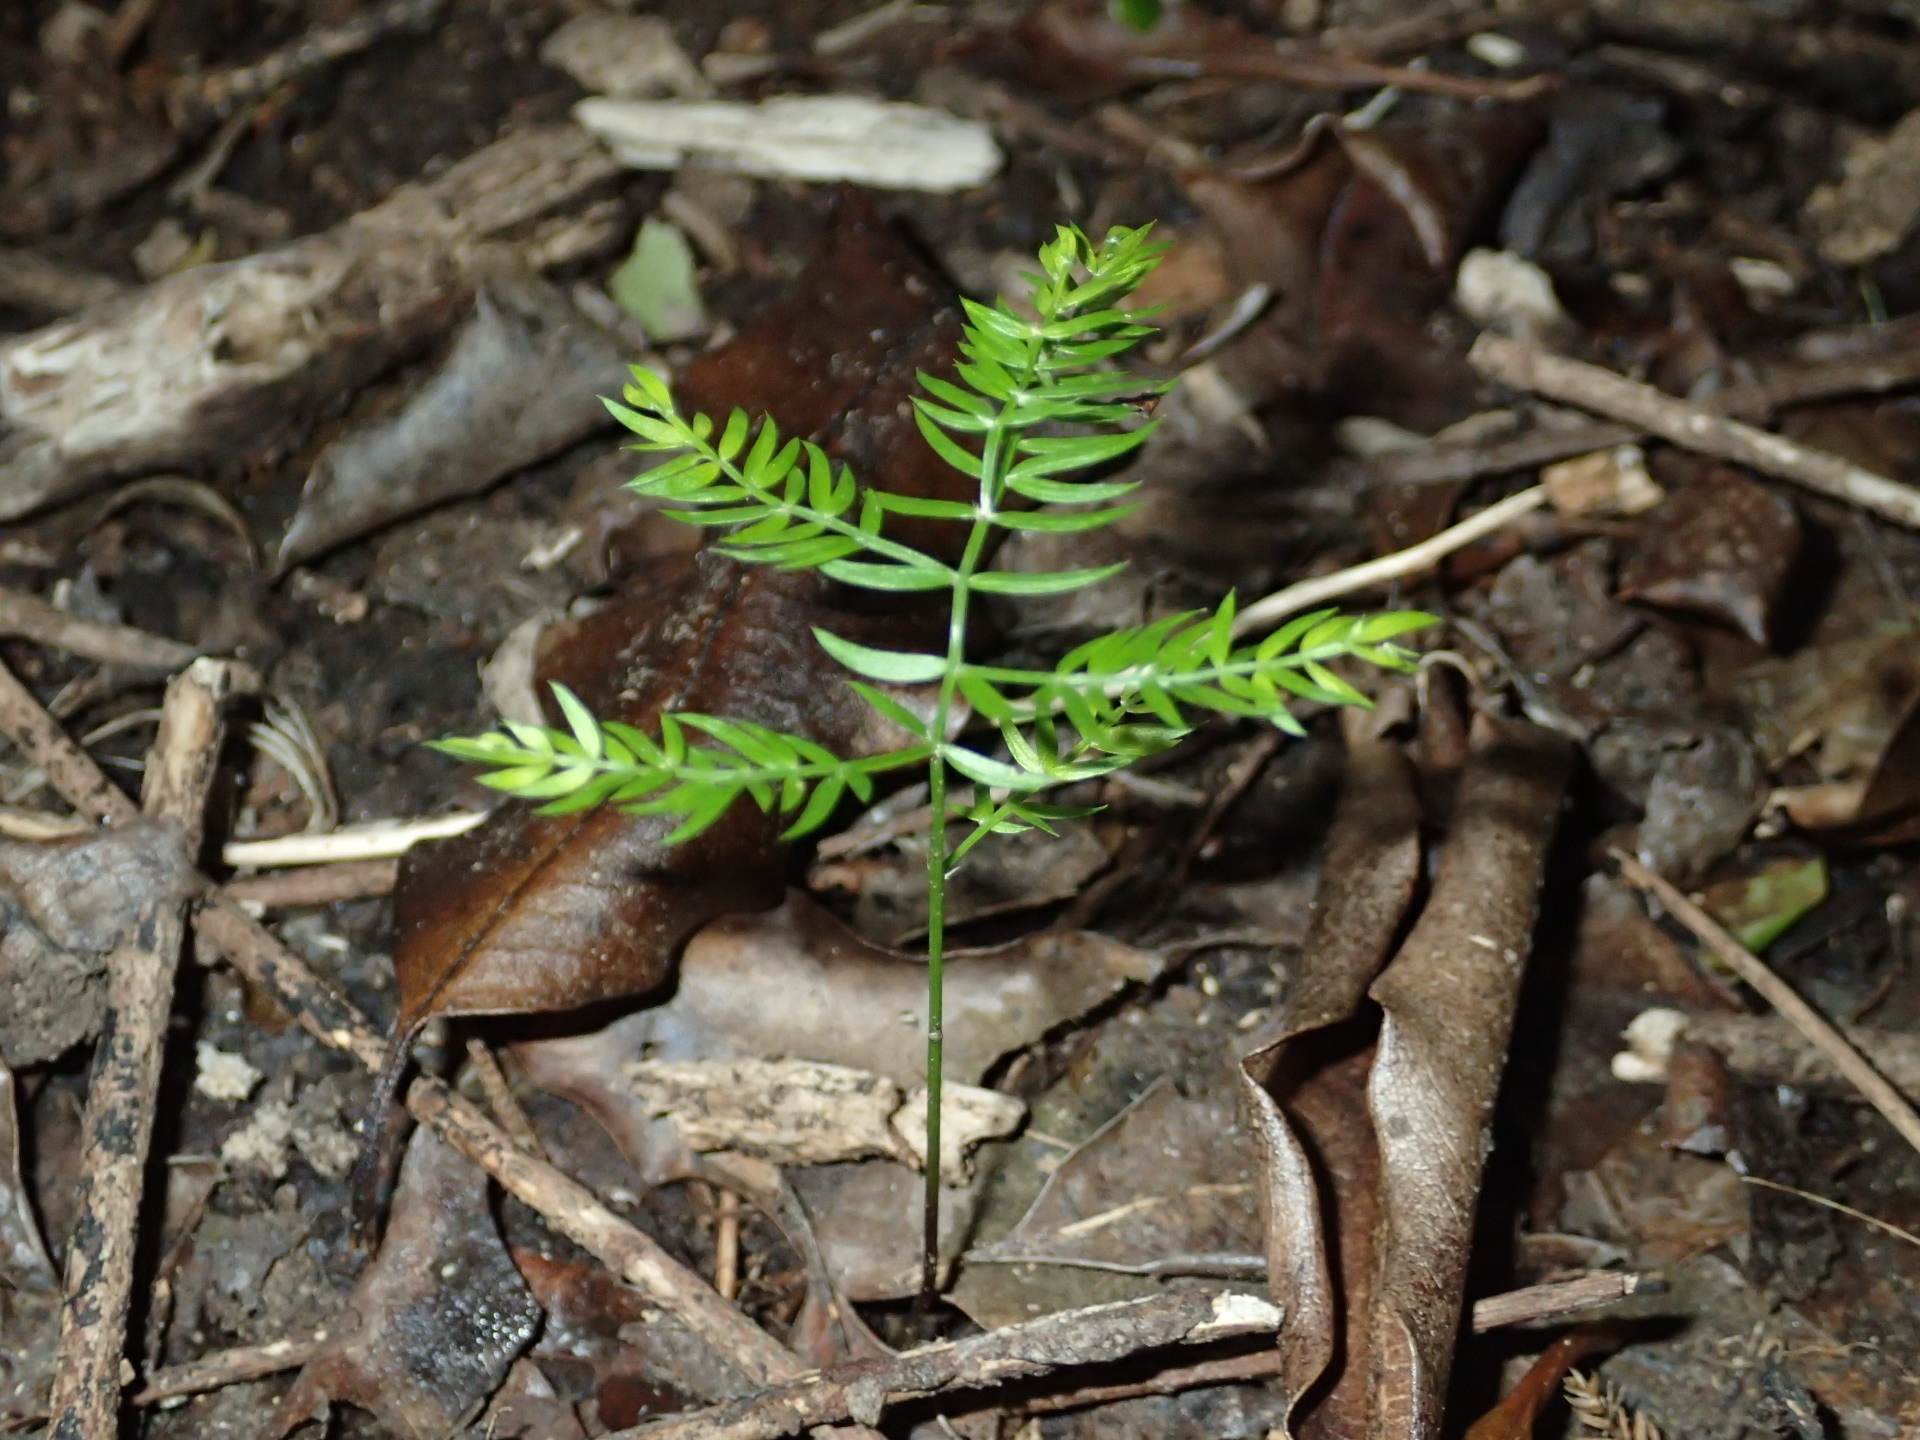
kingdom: Plantae
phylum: Tracheophyta
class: Liliopsida
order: Asparagales
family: Asparagaceae
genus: Asparagus
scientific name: Asparagus scandens
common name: Asparagus-fern
